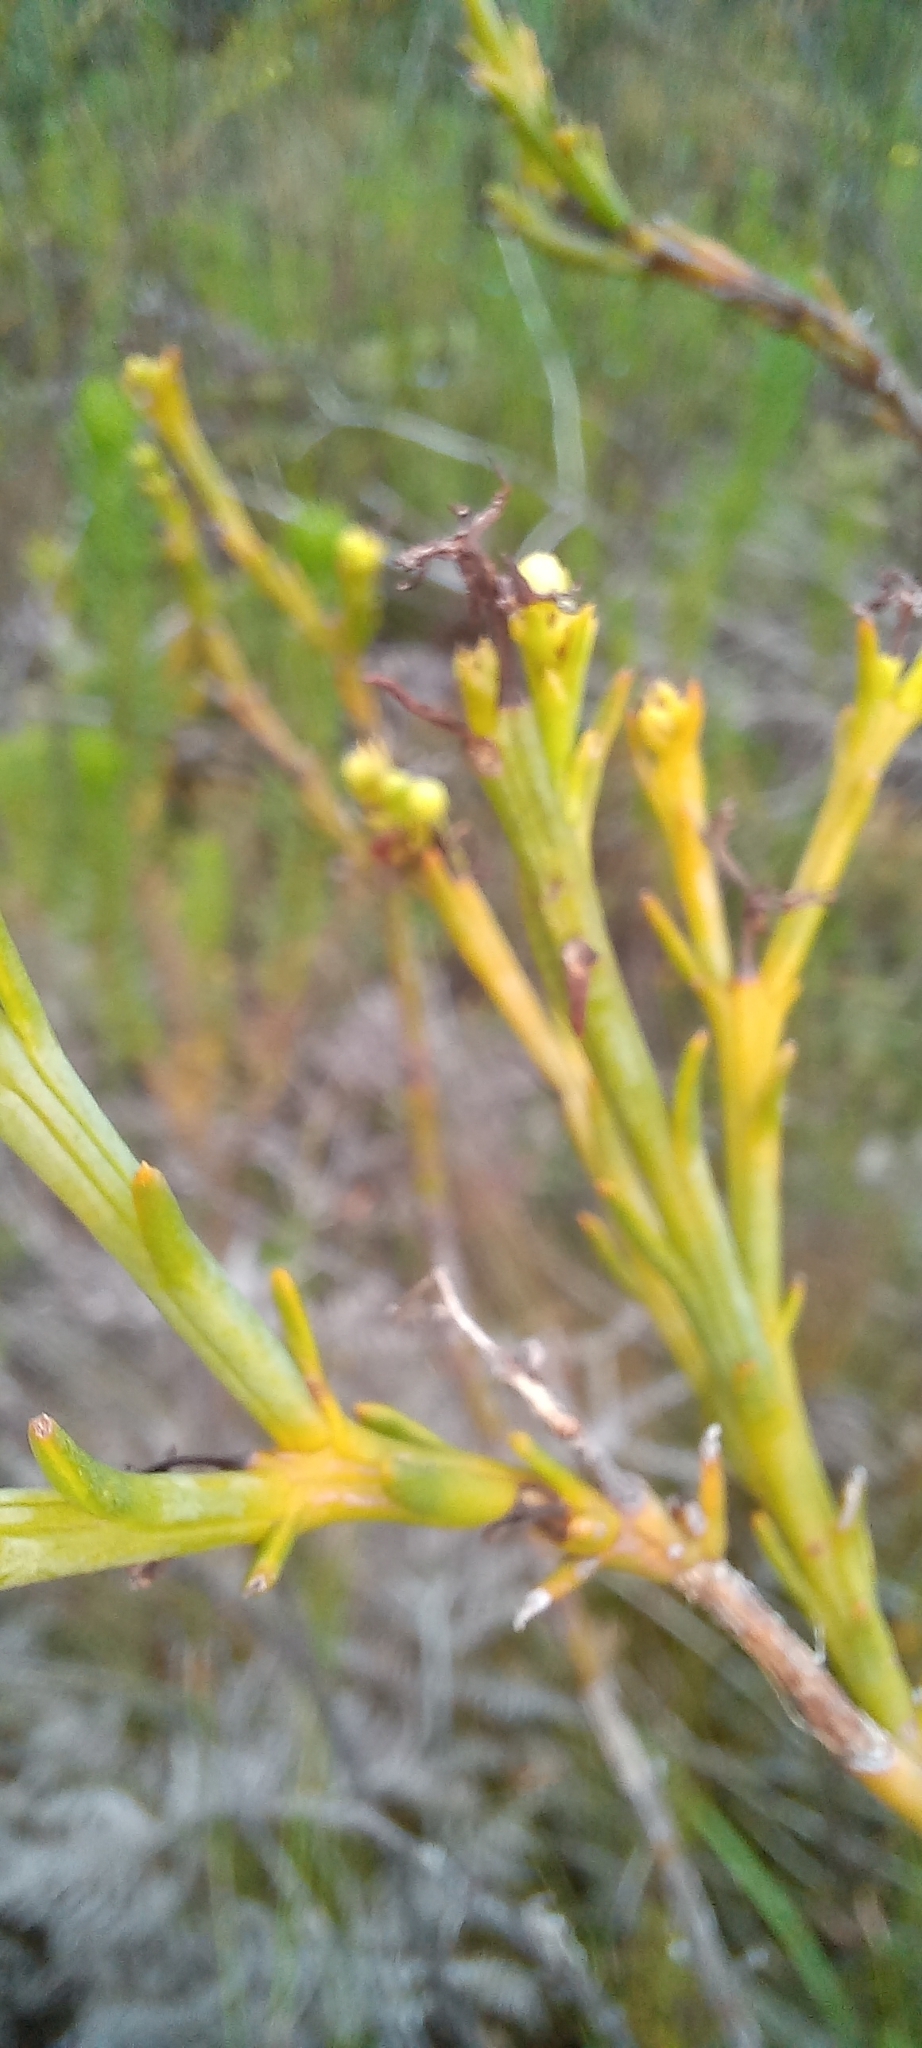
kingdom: Plantae
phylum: Tracheophyta
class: Magnoliopsida
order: Santalales
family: Thesiaceae
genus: Thesium
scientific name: Thesium strictum
